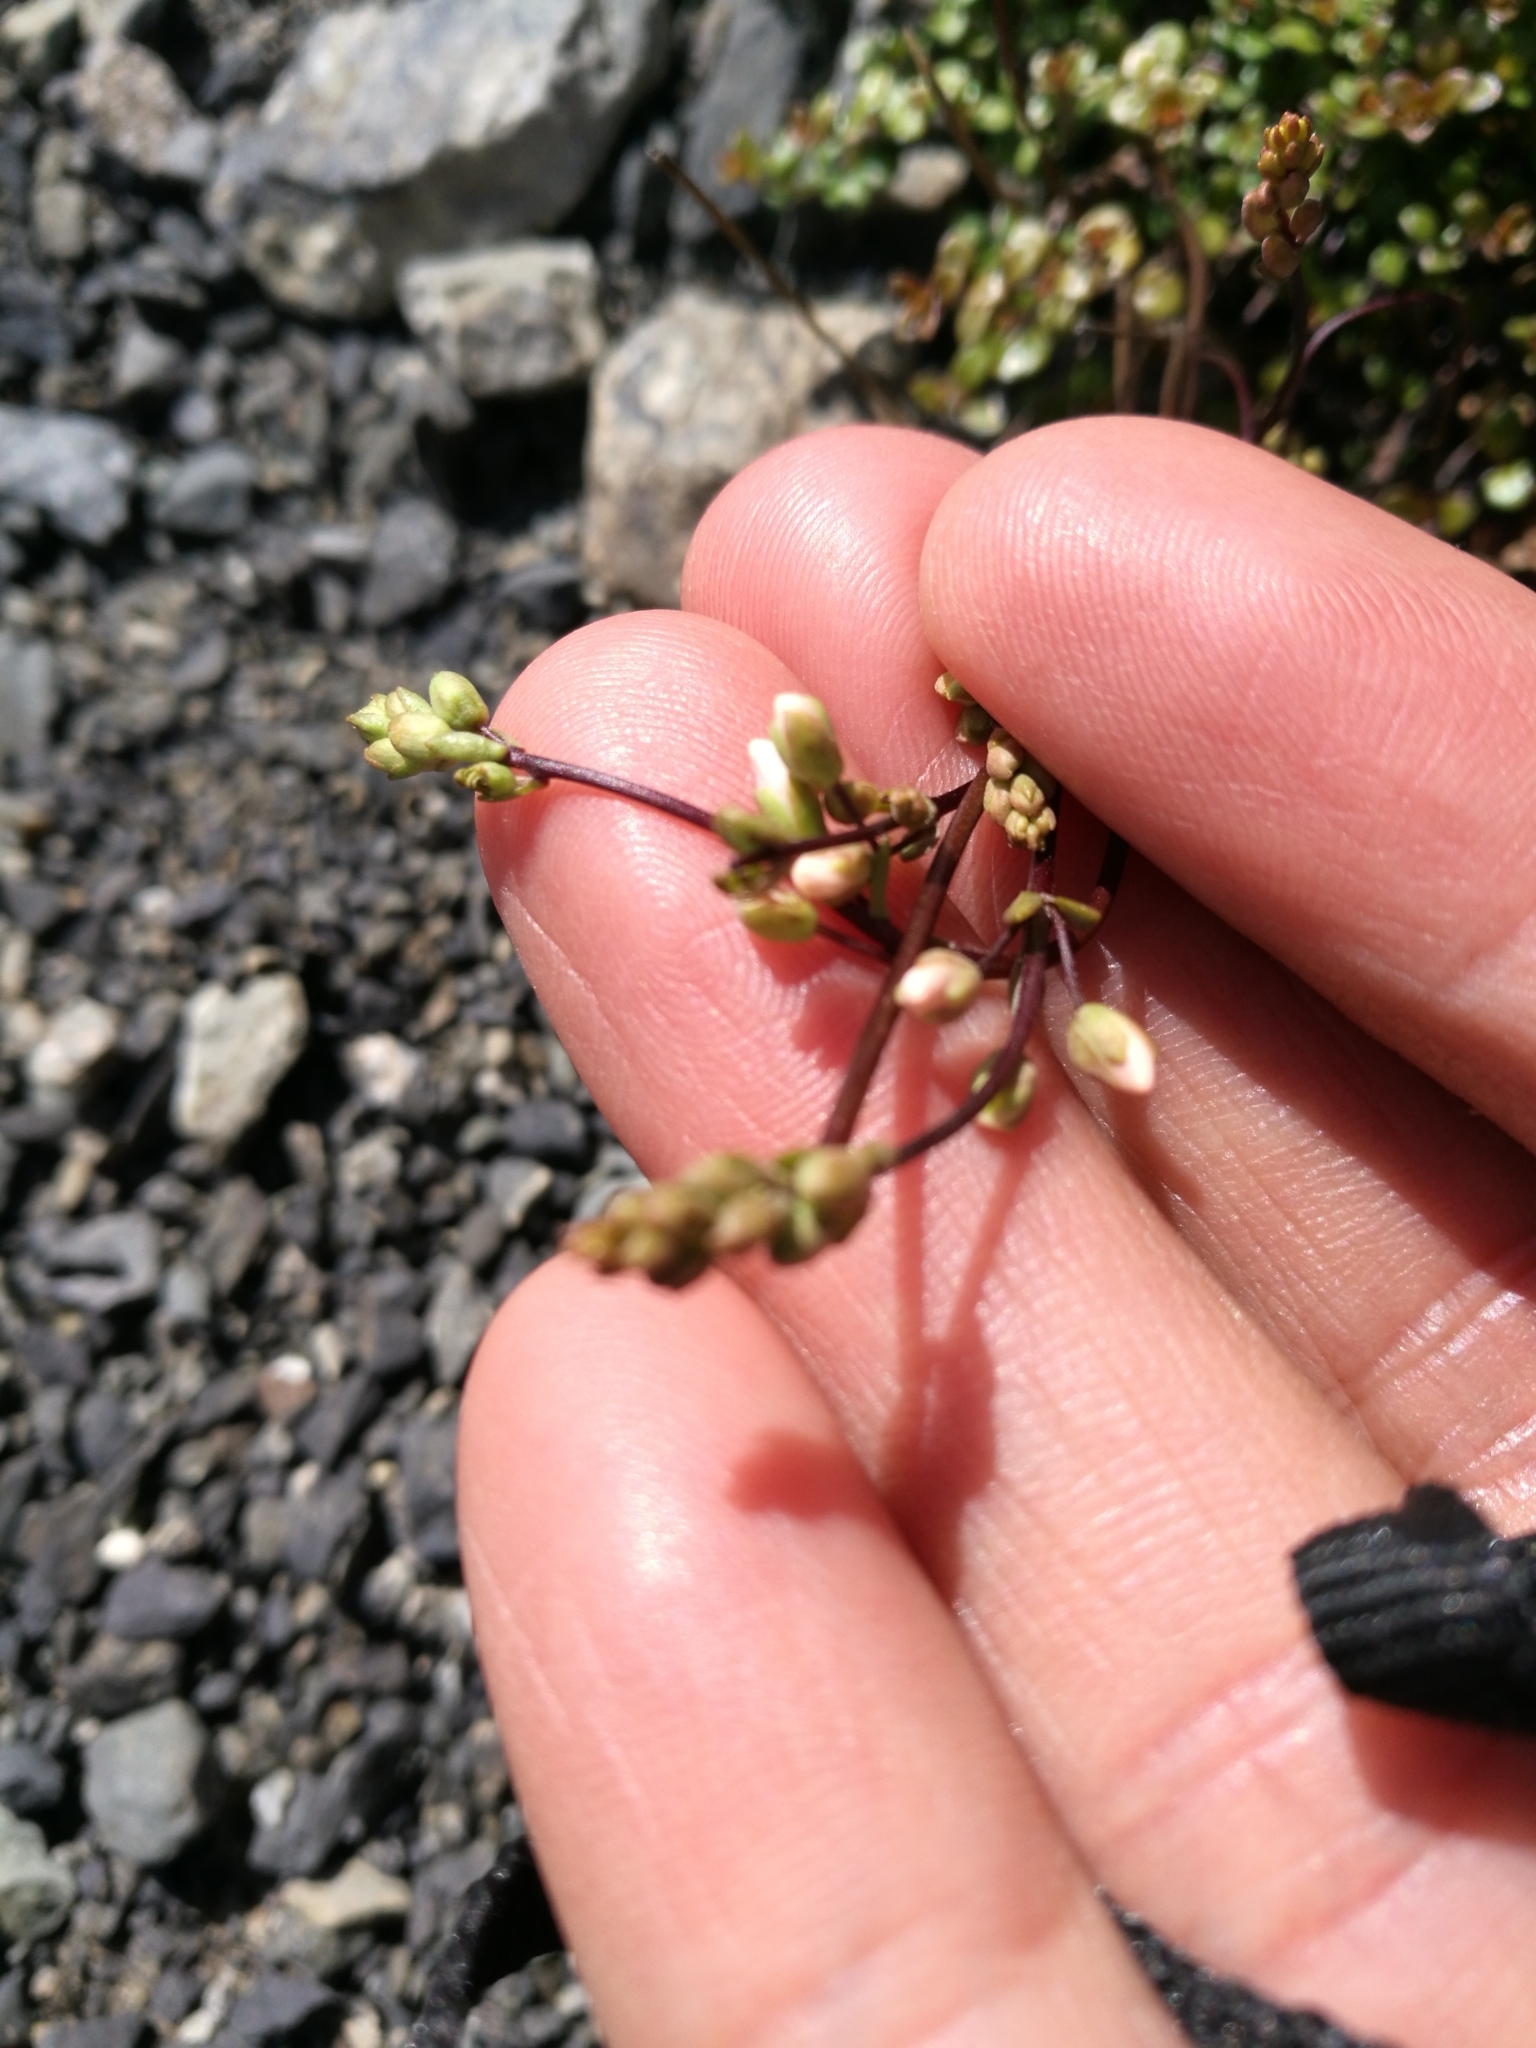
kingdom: Plantae
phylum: Tracheophyta
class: Magnoliopsida
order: Lamiales
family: Plantaginaceae
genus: Veronica
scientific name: Veronica decora
